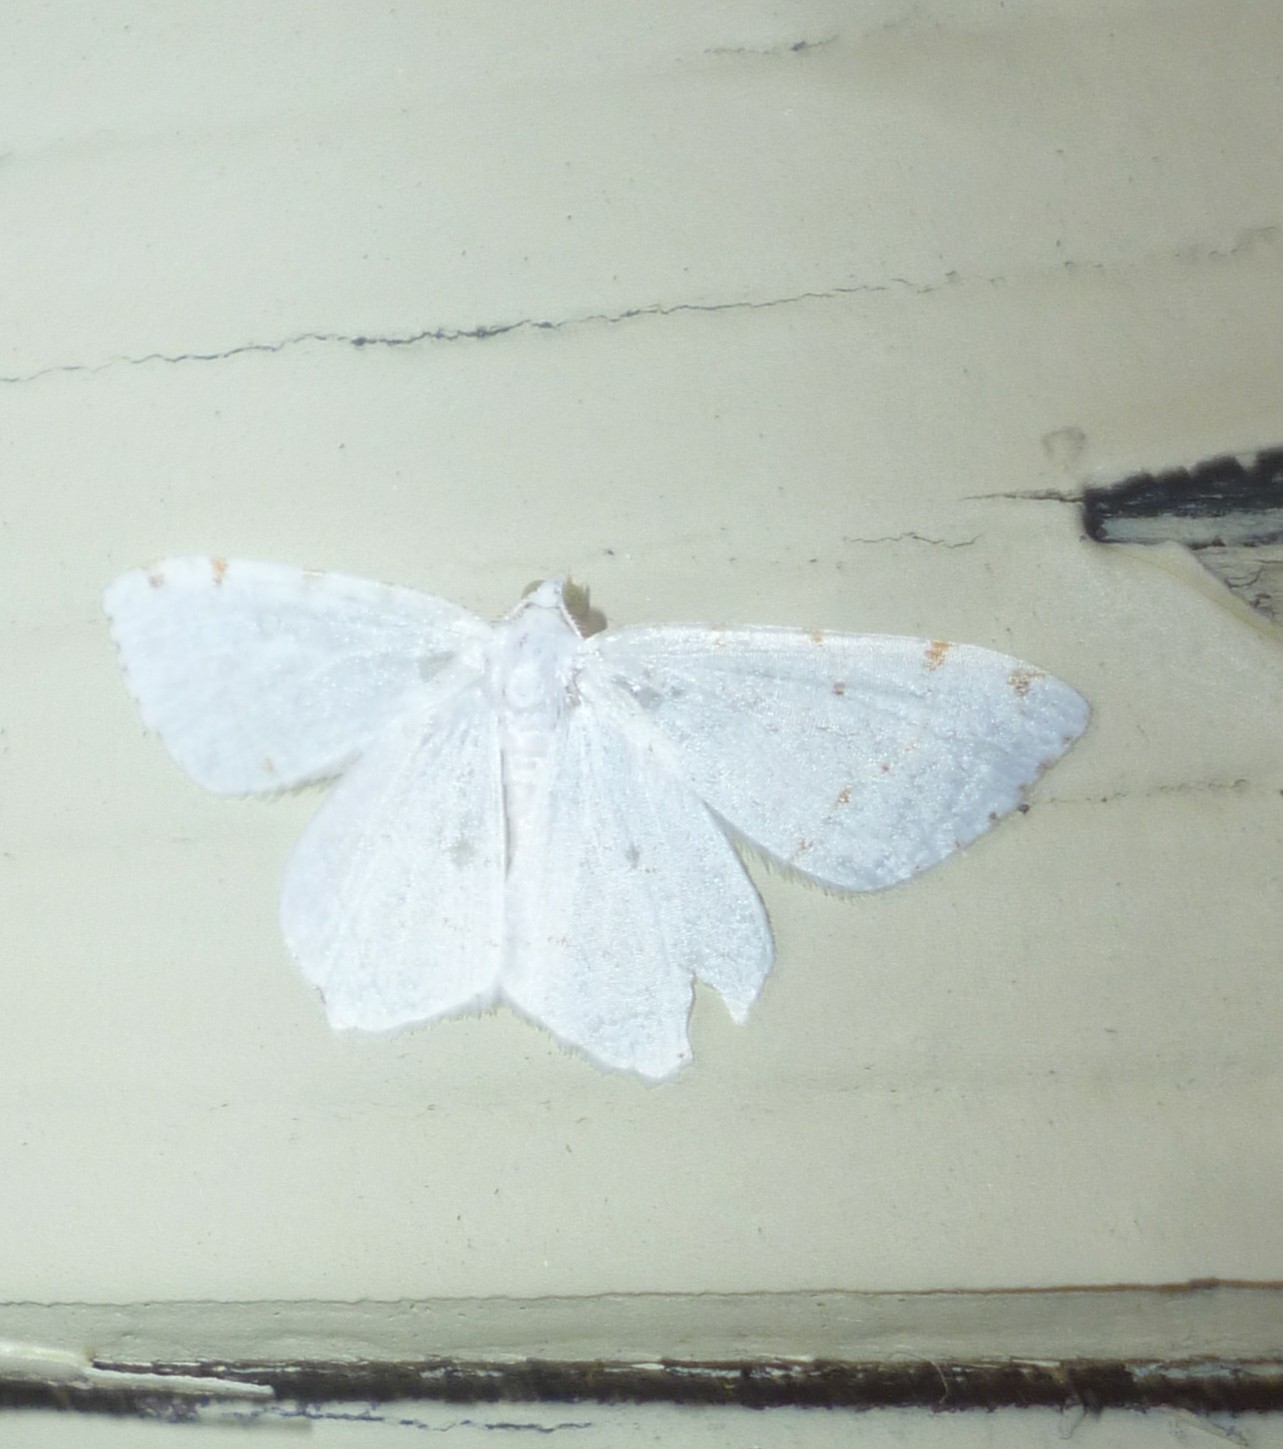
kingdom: Animalia
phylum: Arthropoda
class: Insecta
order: Lepidoptera
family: Geometridae
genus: Macaria
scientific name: Macaria pustularia
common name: Lesser maple spanworm moth
